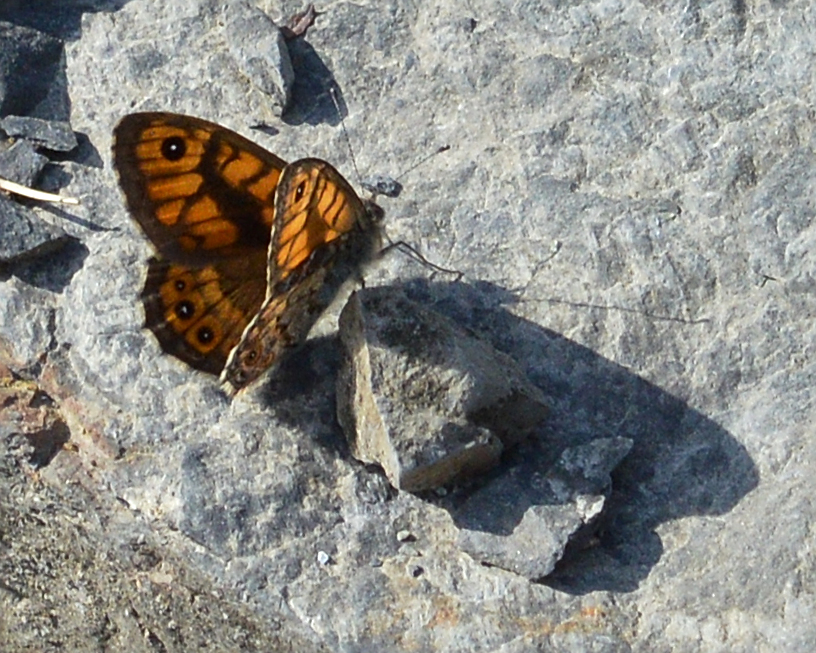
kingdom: Animalia
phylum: Arthropoda
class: Insecta
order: Lepidoptera
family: Nymphalidae
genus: Pararge
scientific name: Pararge Lasiommata megera
